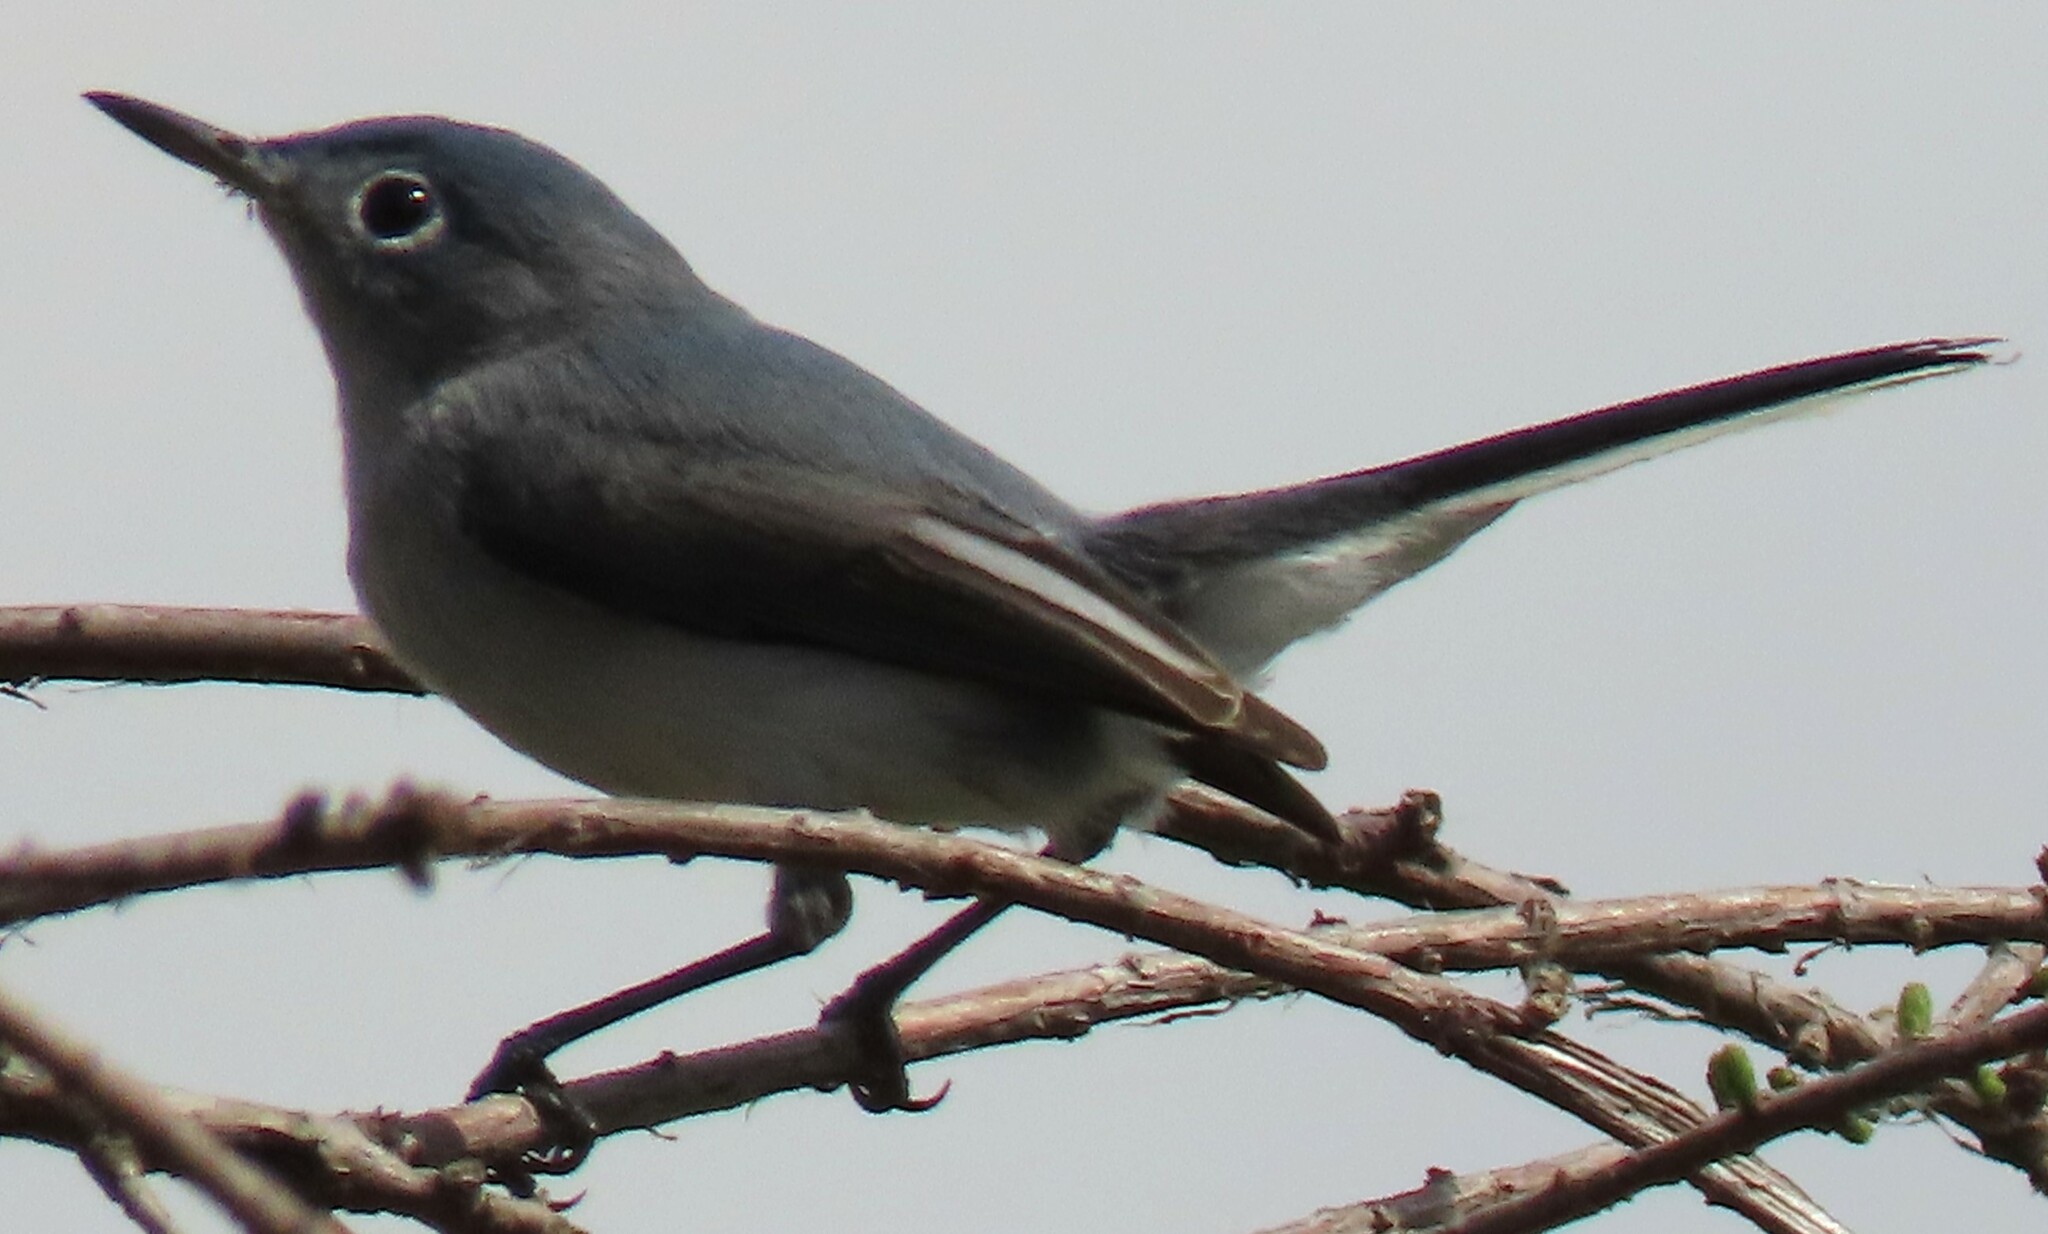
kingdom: Animalia
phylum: Chordata
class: Aves
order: Passeriformes
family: Polioptilidae
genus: Polioptila
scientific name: Polioptila caerulea
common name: Blue-gray gnatcatcher
